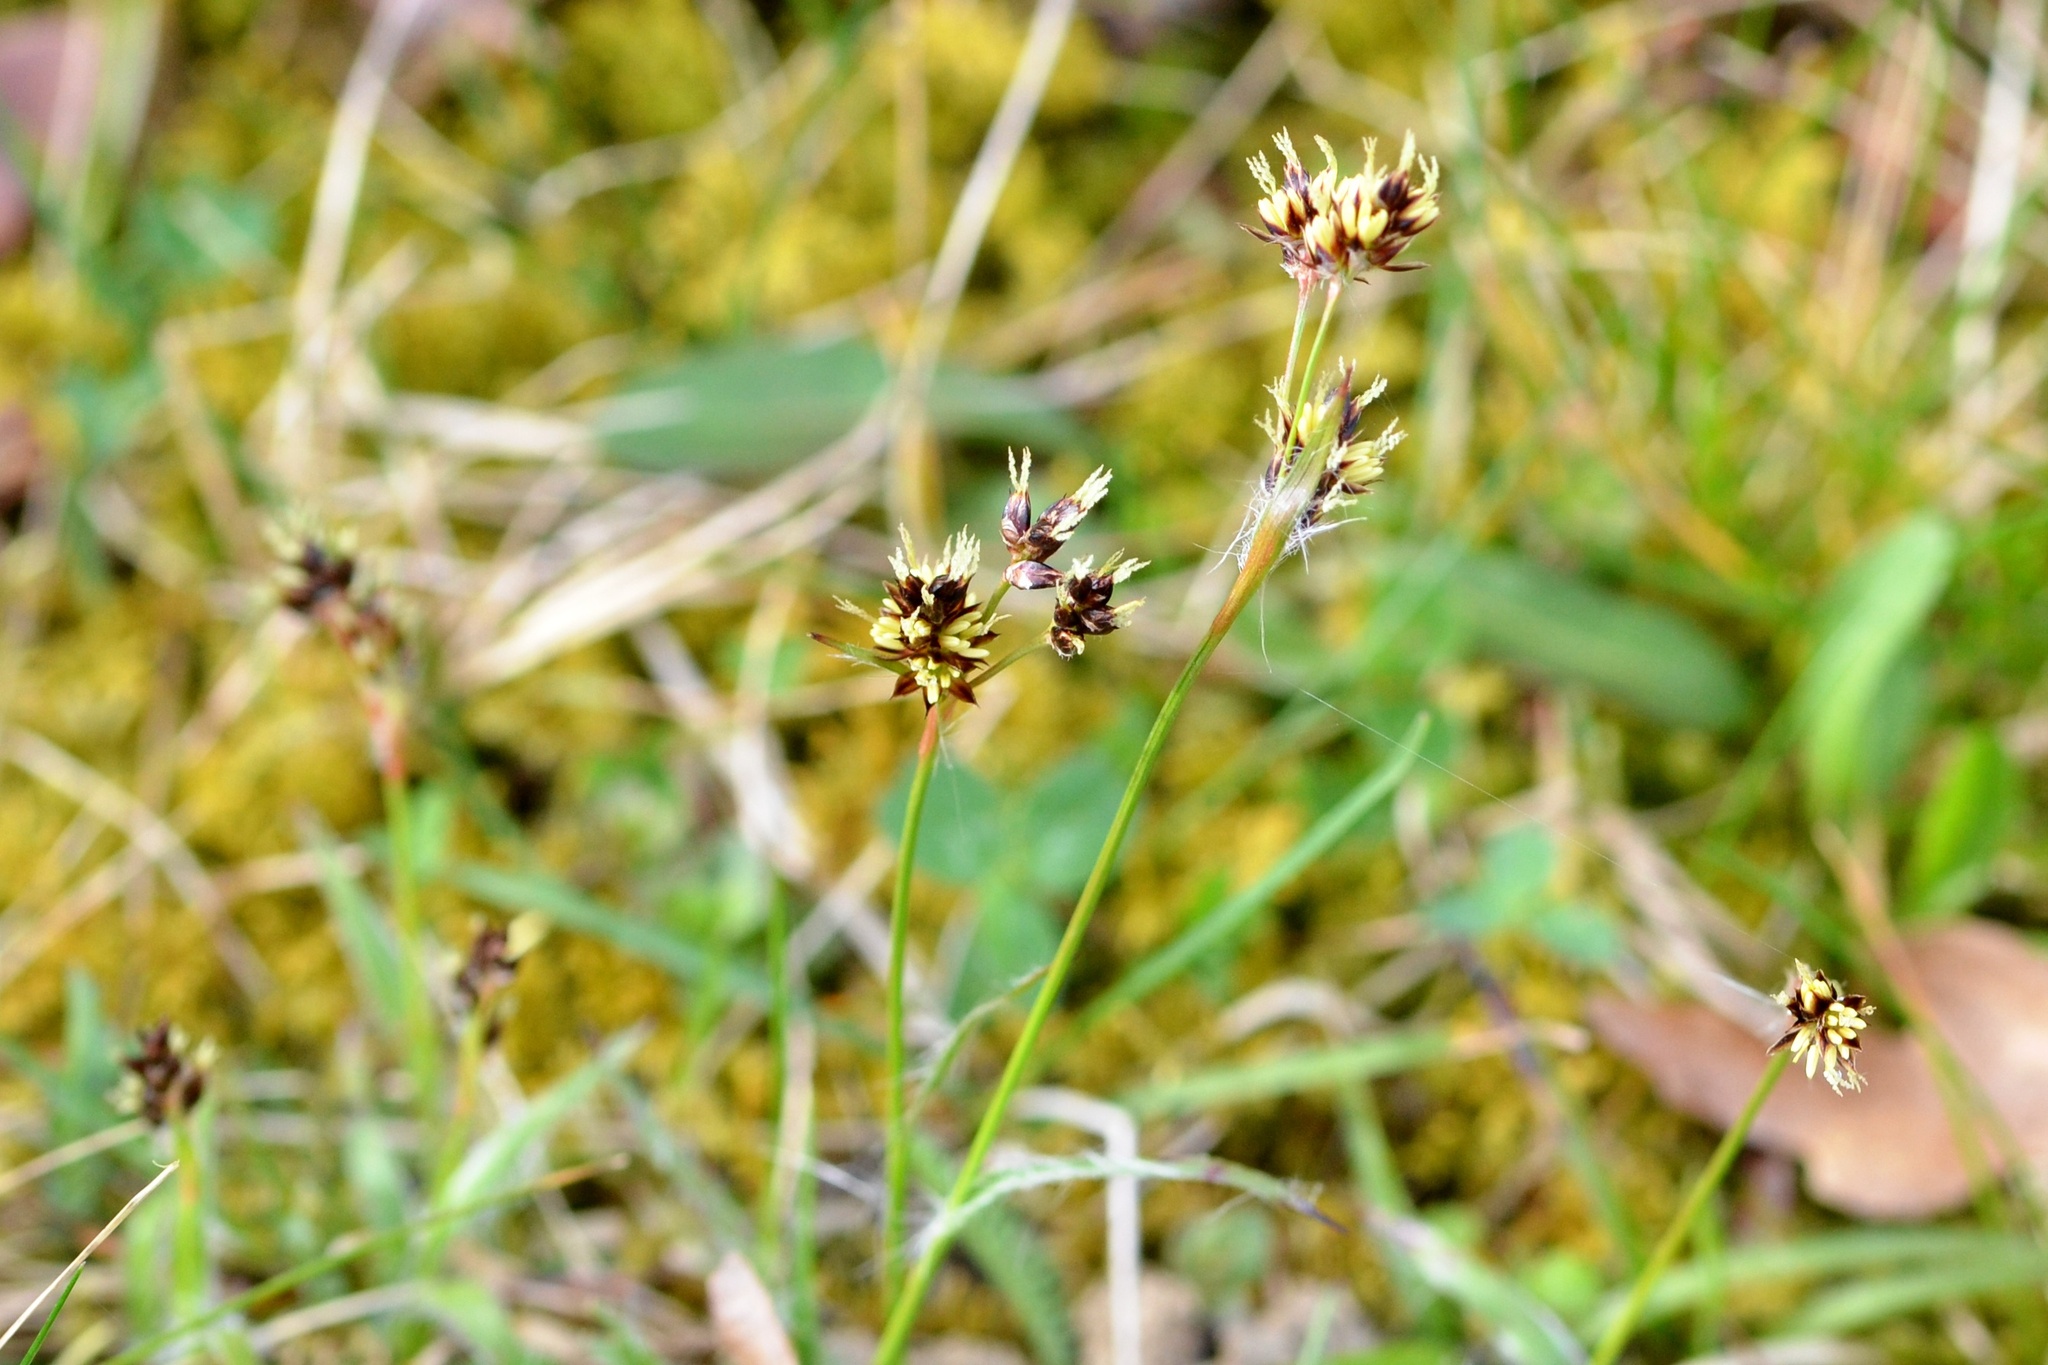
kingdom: Plantae
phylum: Tracheophyta
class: Liliopsida
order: Poales
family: Juncaceae
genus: Luzula
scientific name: Luzula campestris
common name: Field wood-rush
